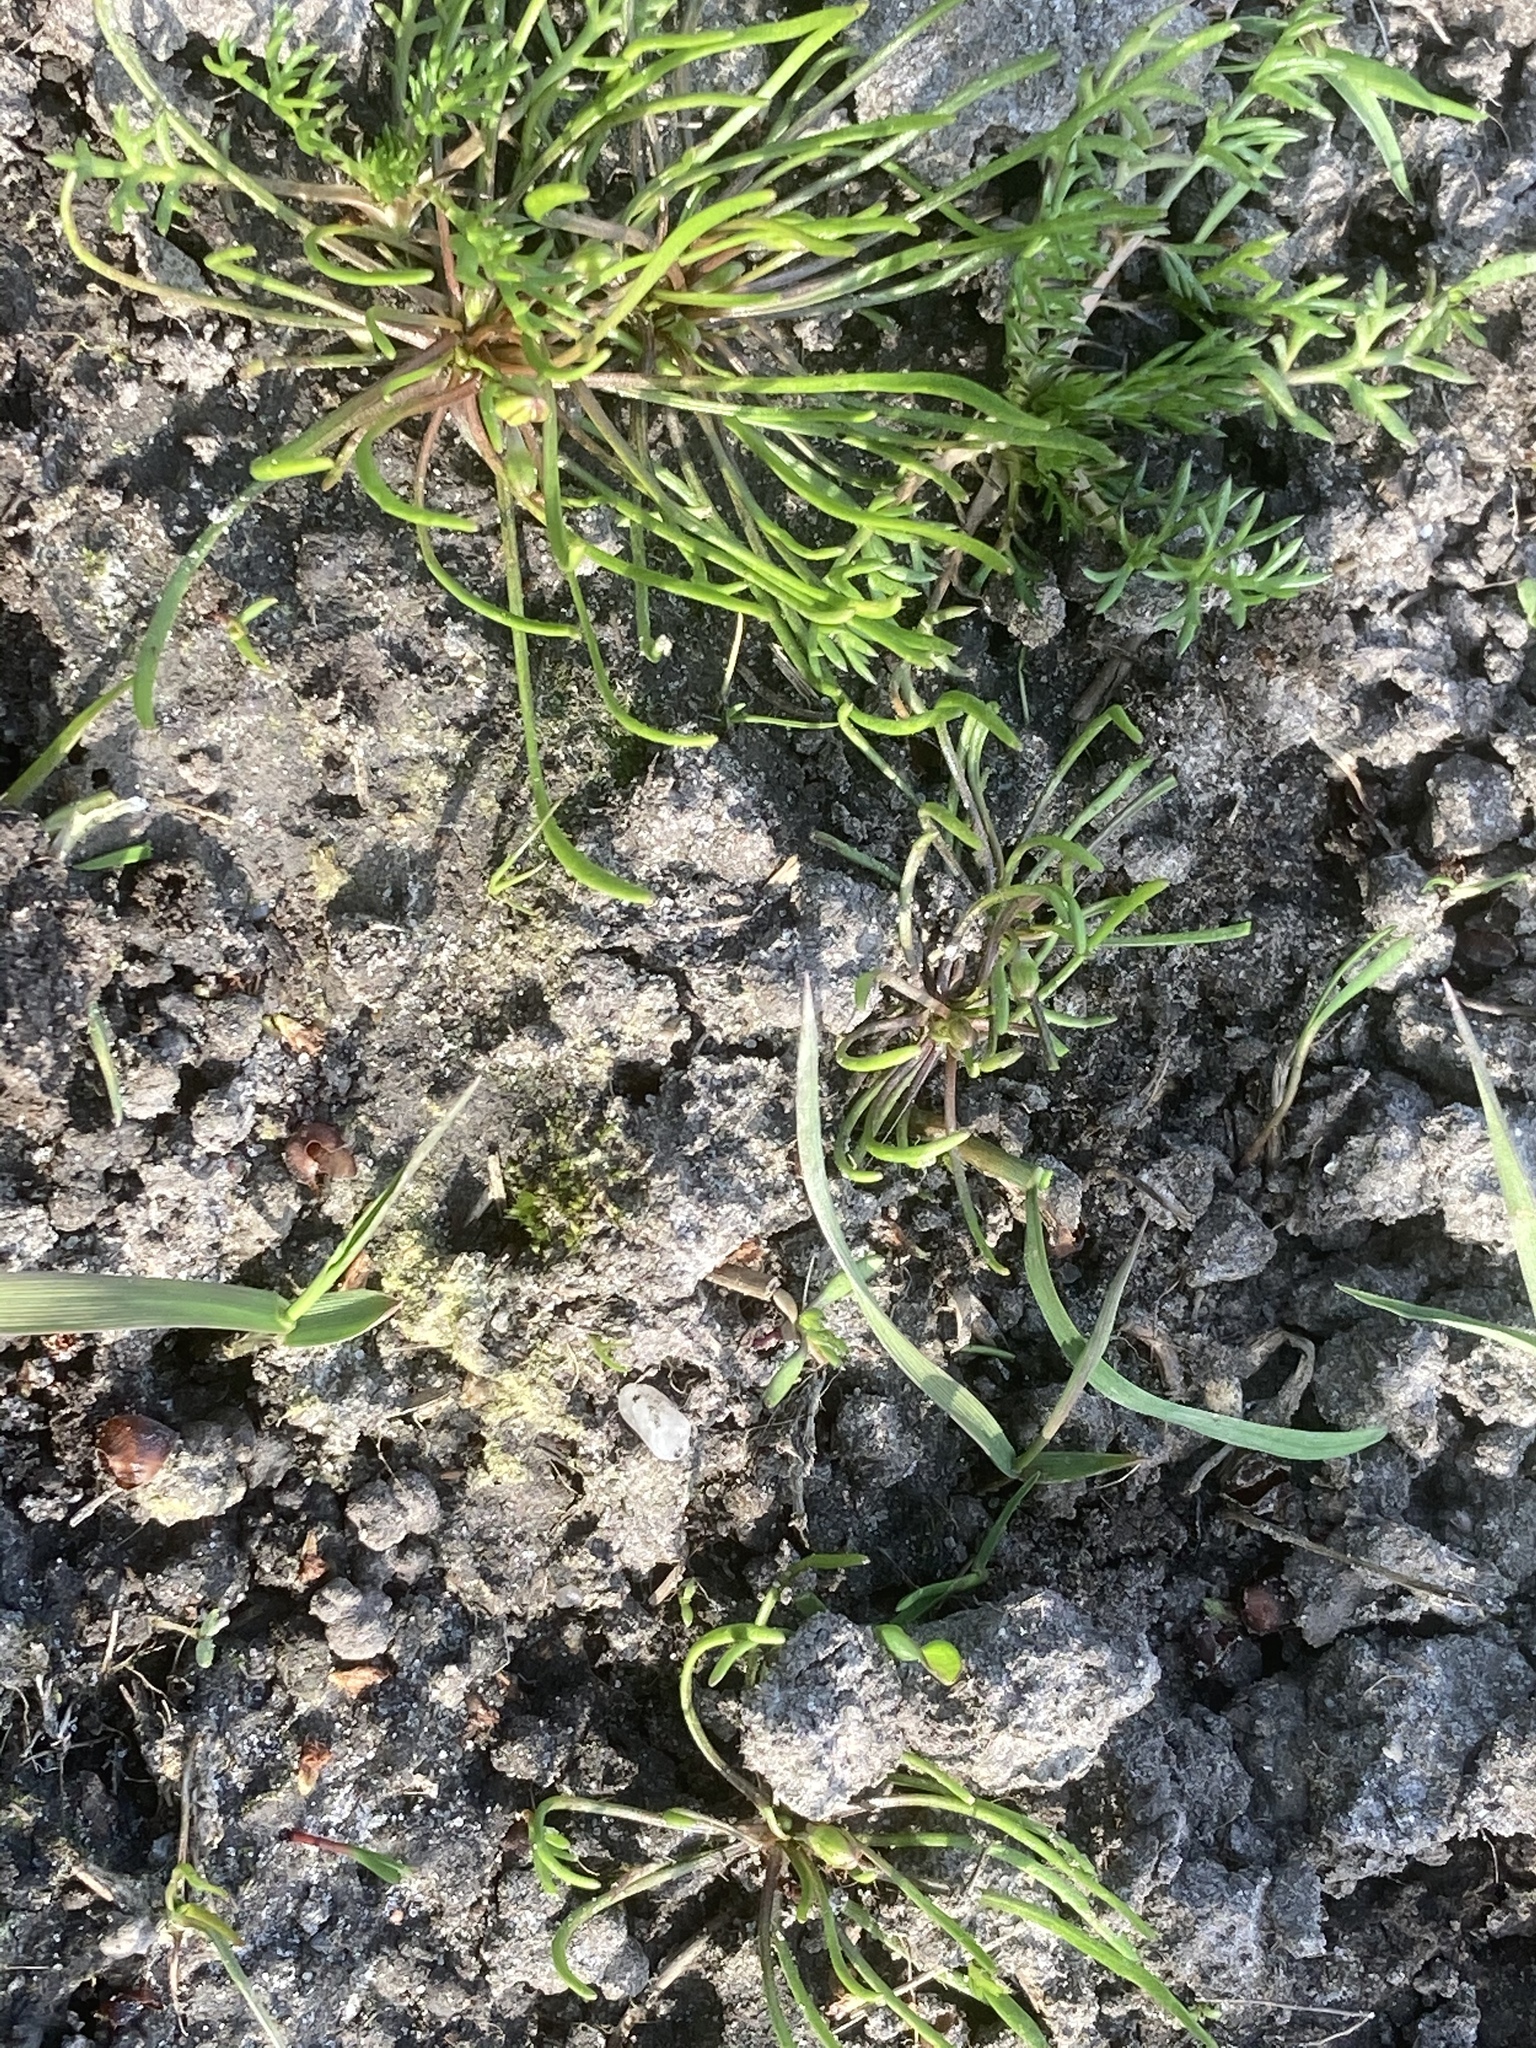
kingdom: Plantae
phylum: Tracheophyta
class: Magnoliopsida
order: Ranunculales
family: Ranunculaceae
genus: Myosurus
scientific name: Myosurus minimus
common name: Mousetail
